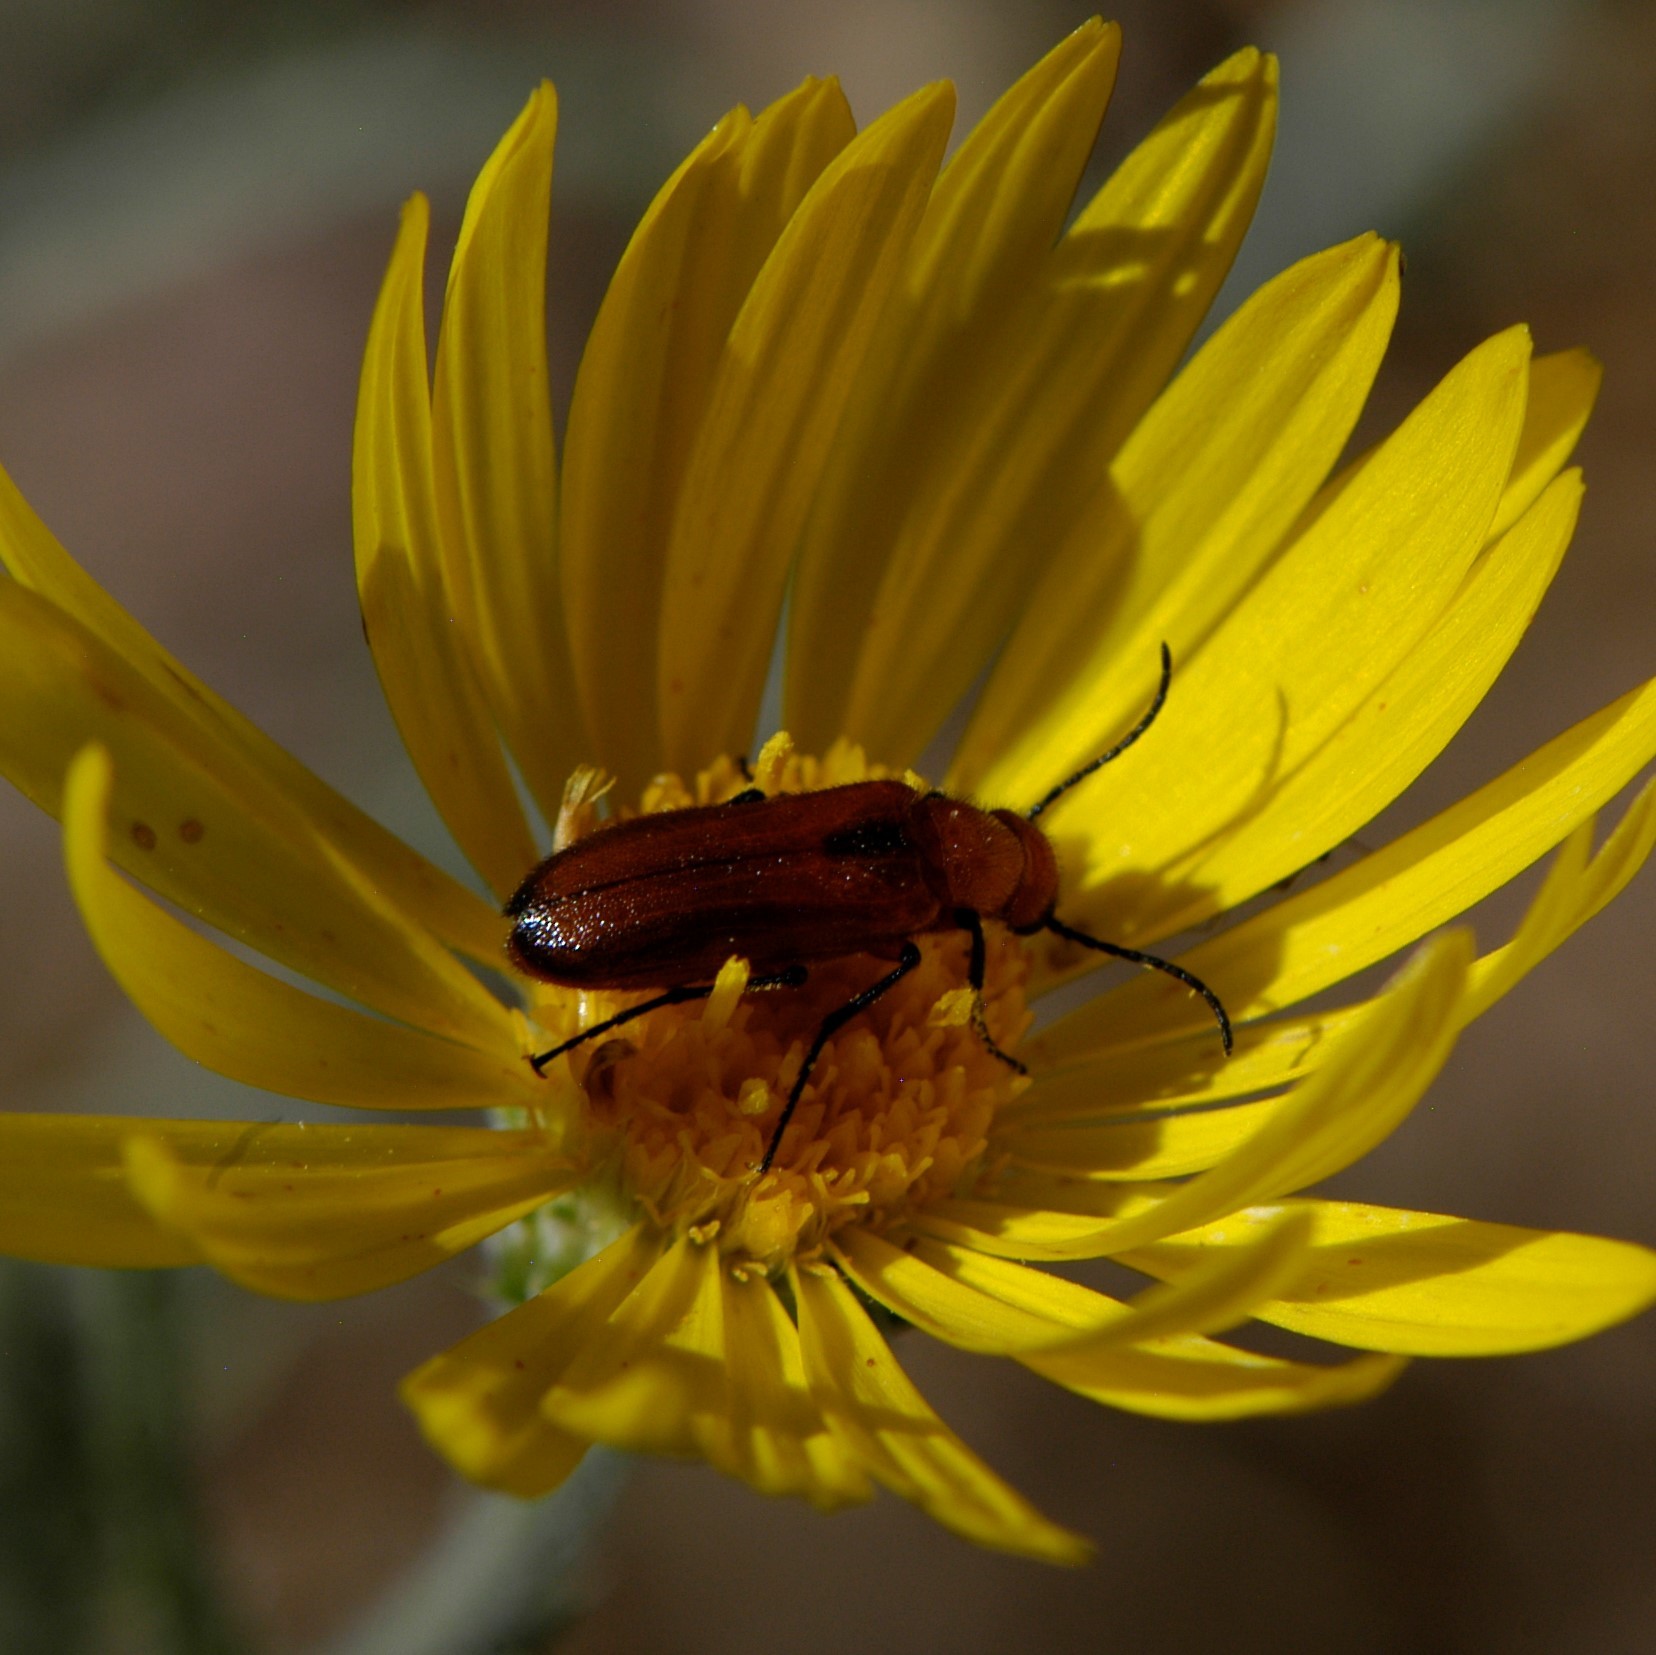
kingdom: Animalia
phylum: Arthropoda
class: Insecta
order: Coleoptera
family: Meloidae
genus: Nemognatha
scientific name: Nemognatha nigripennis
